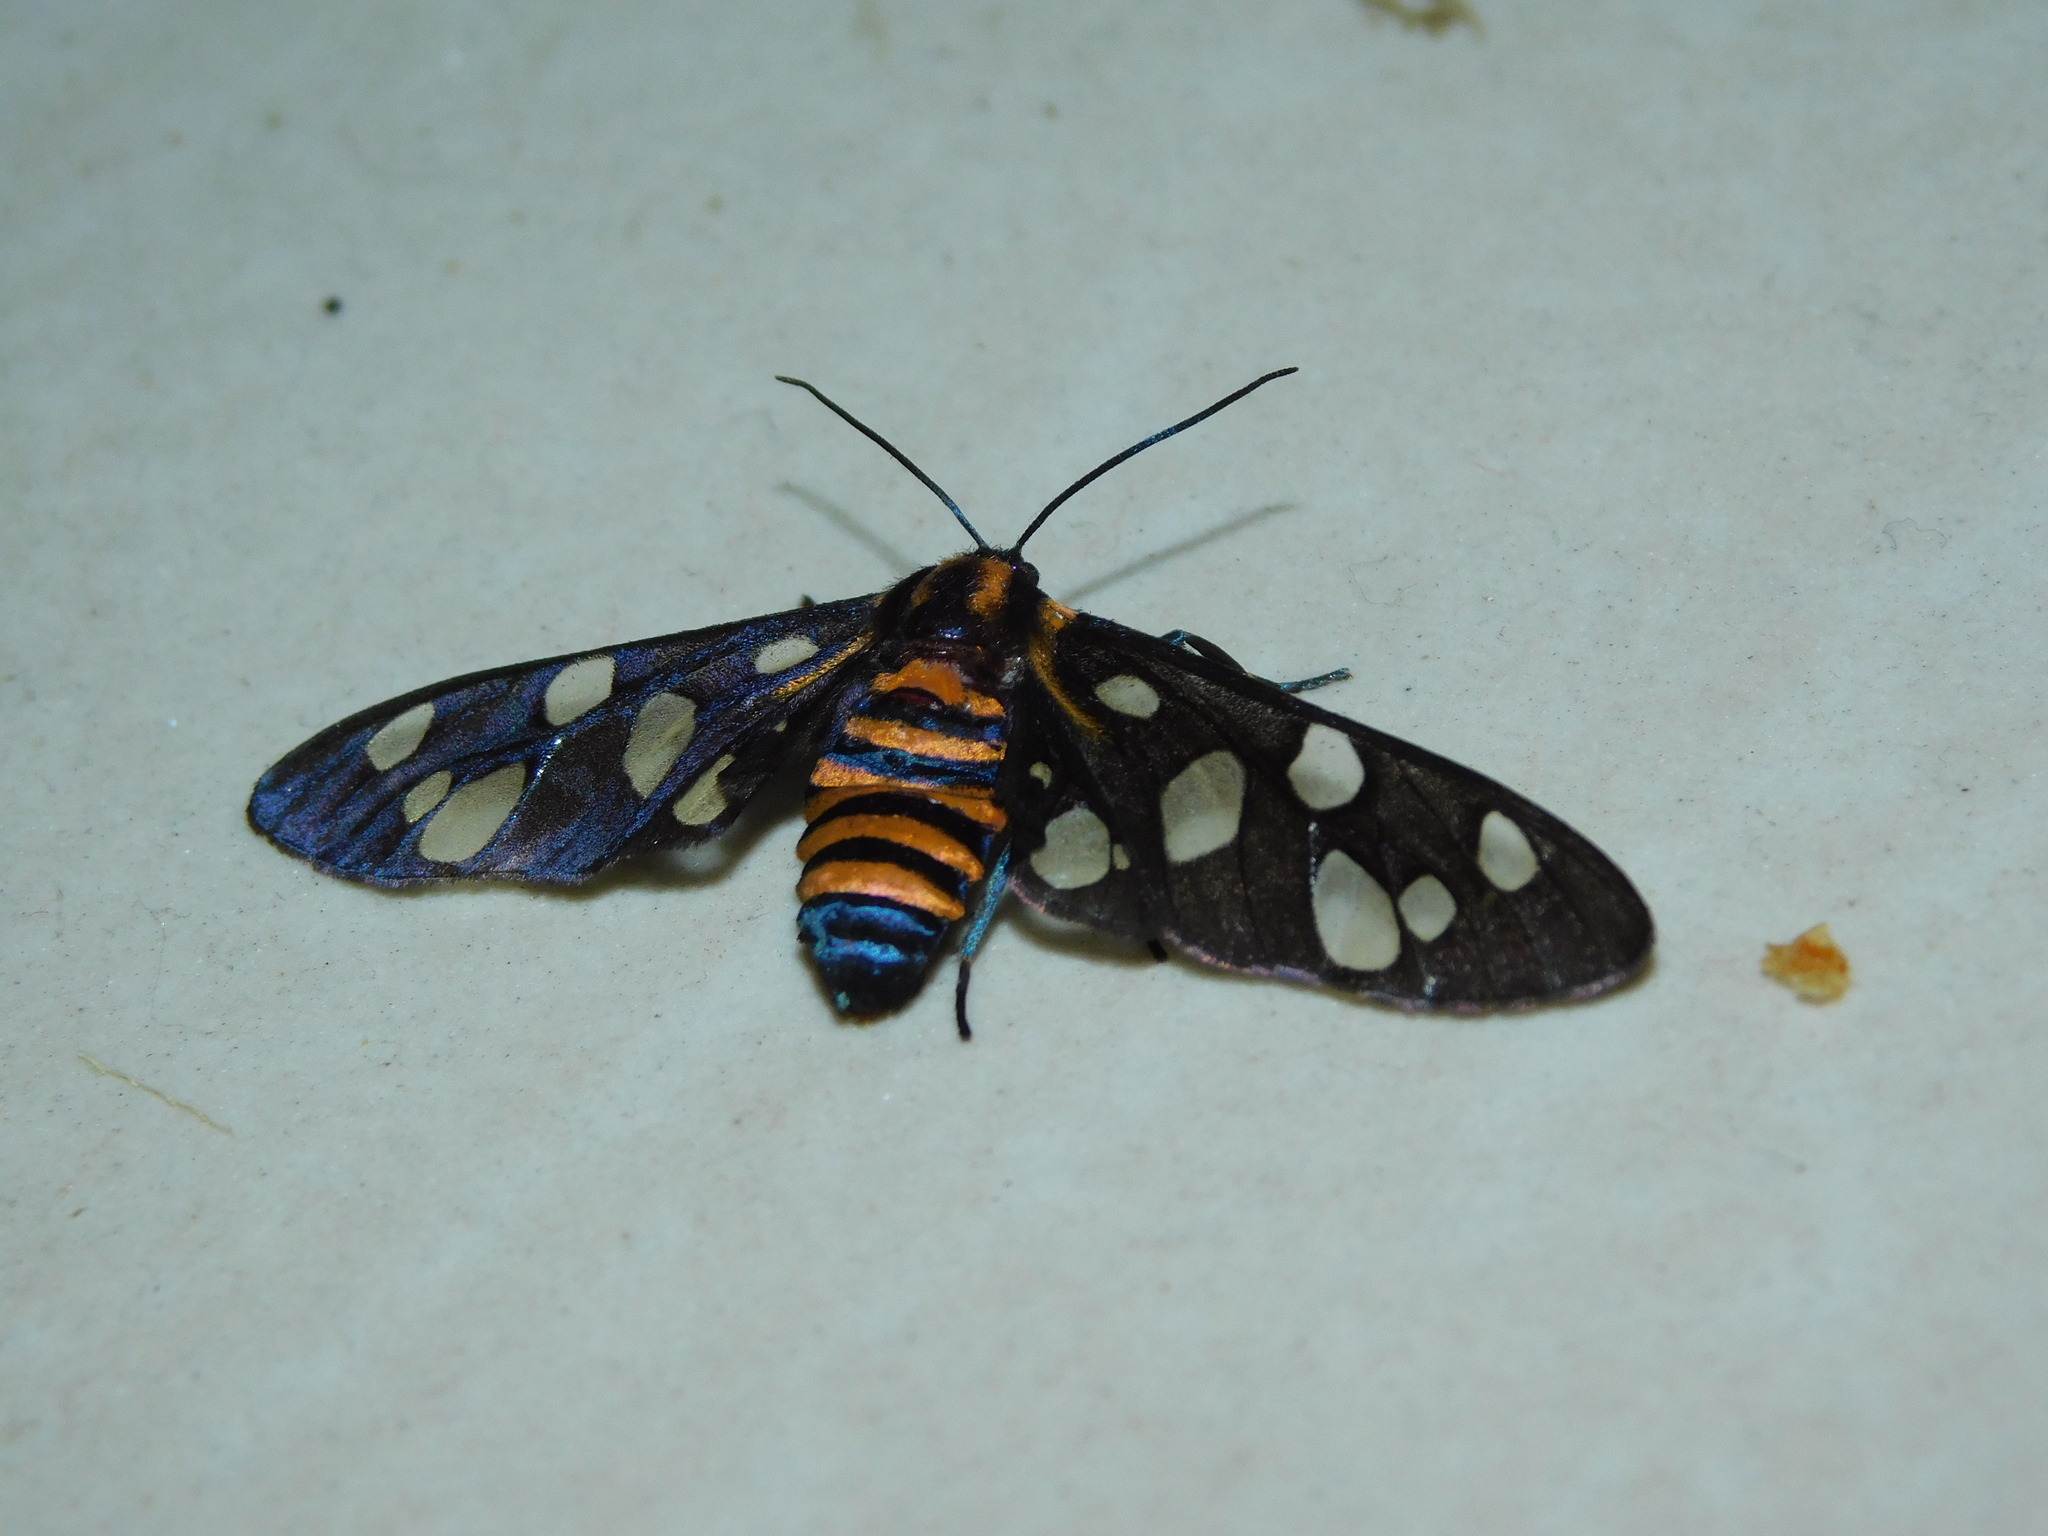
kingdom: Animalia
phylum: Arthropoda
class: Insecta
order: Lepidoptera
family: Erebidae
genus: Amata
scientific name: Amata passalis
